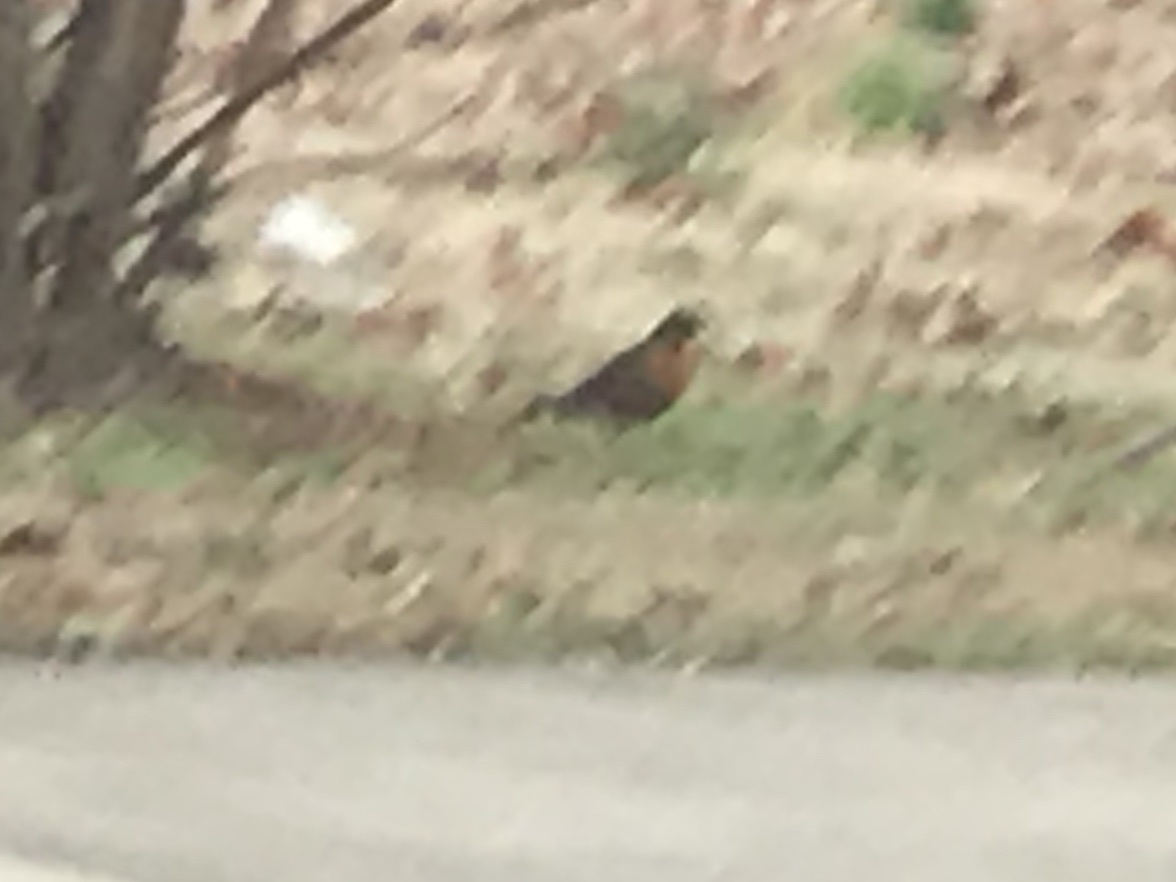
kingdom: Animalia
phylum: Chordata
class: Aves
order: Passeriformes
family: Turdidae
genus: Turdus
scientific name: Turdus migratorius
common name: American robin
